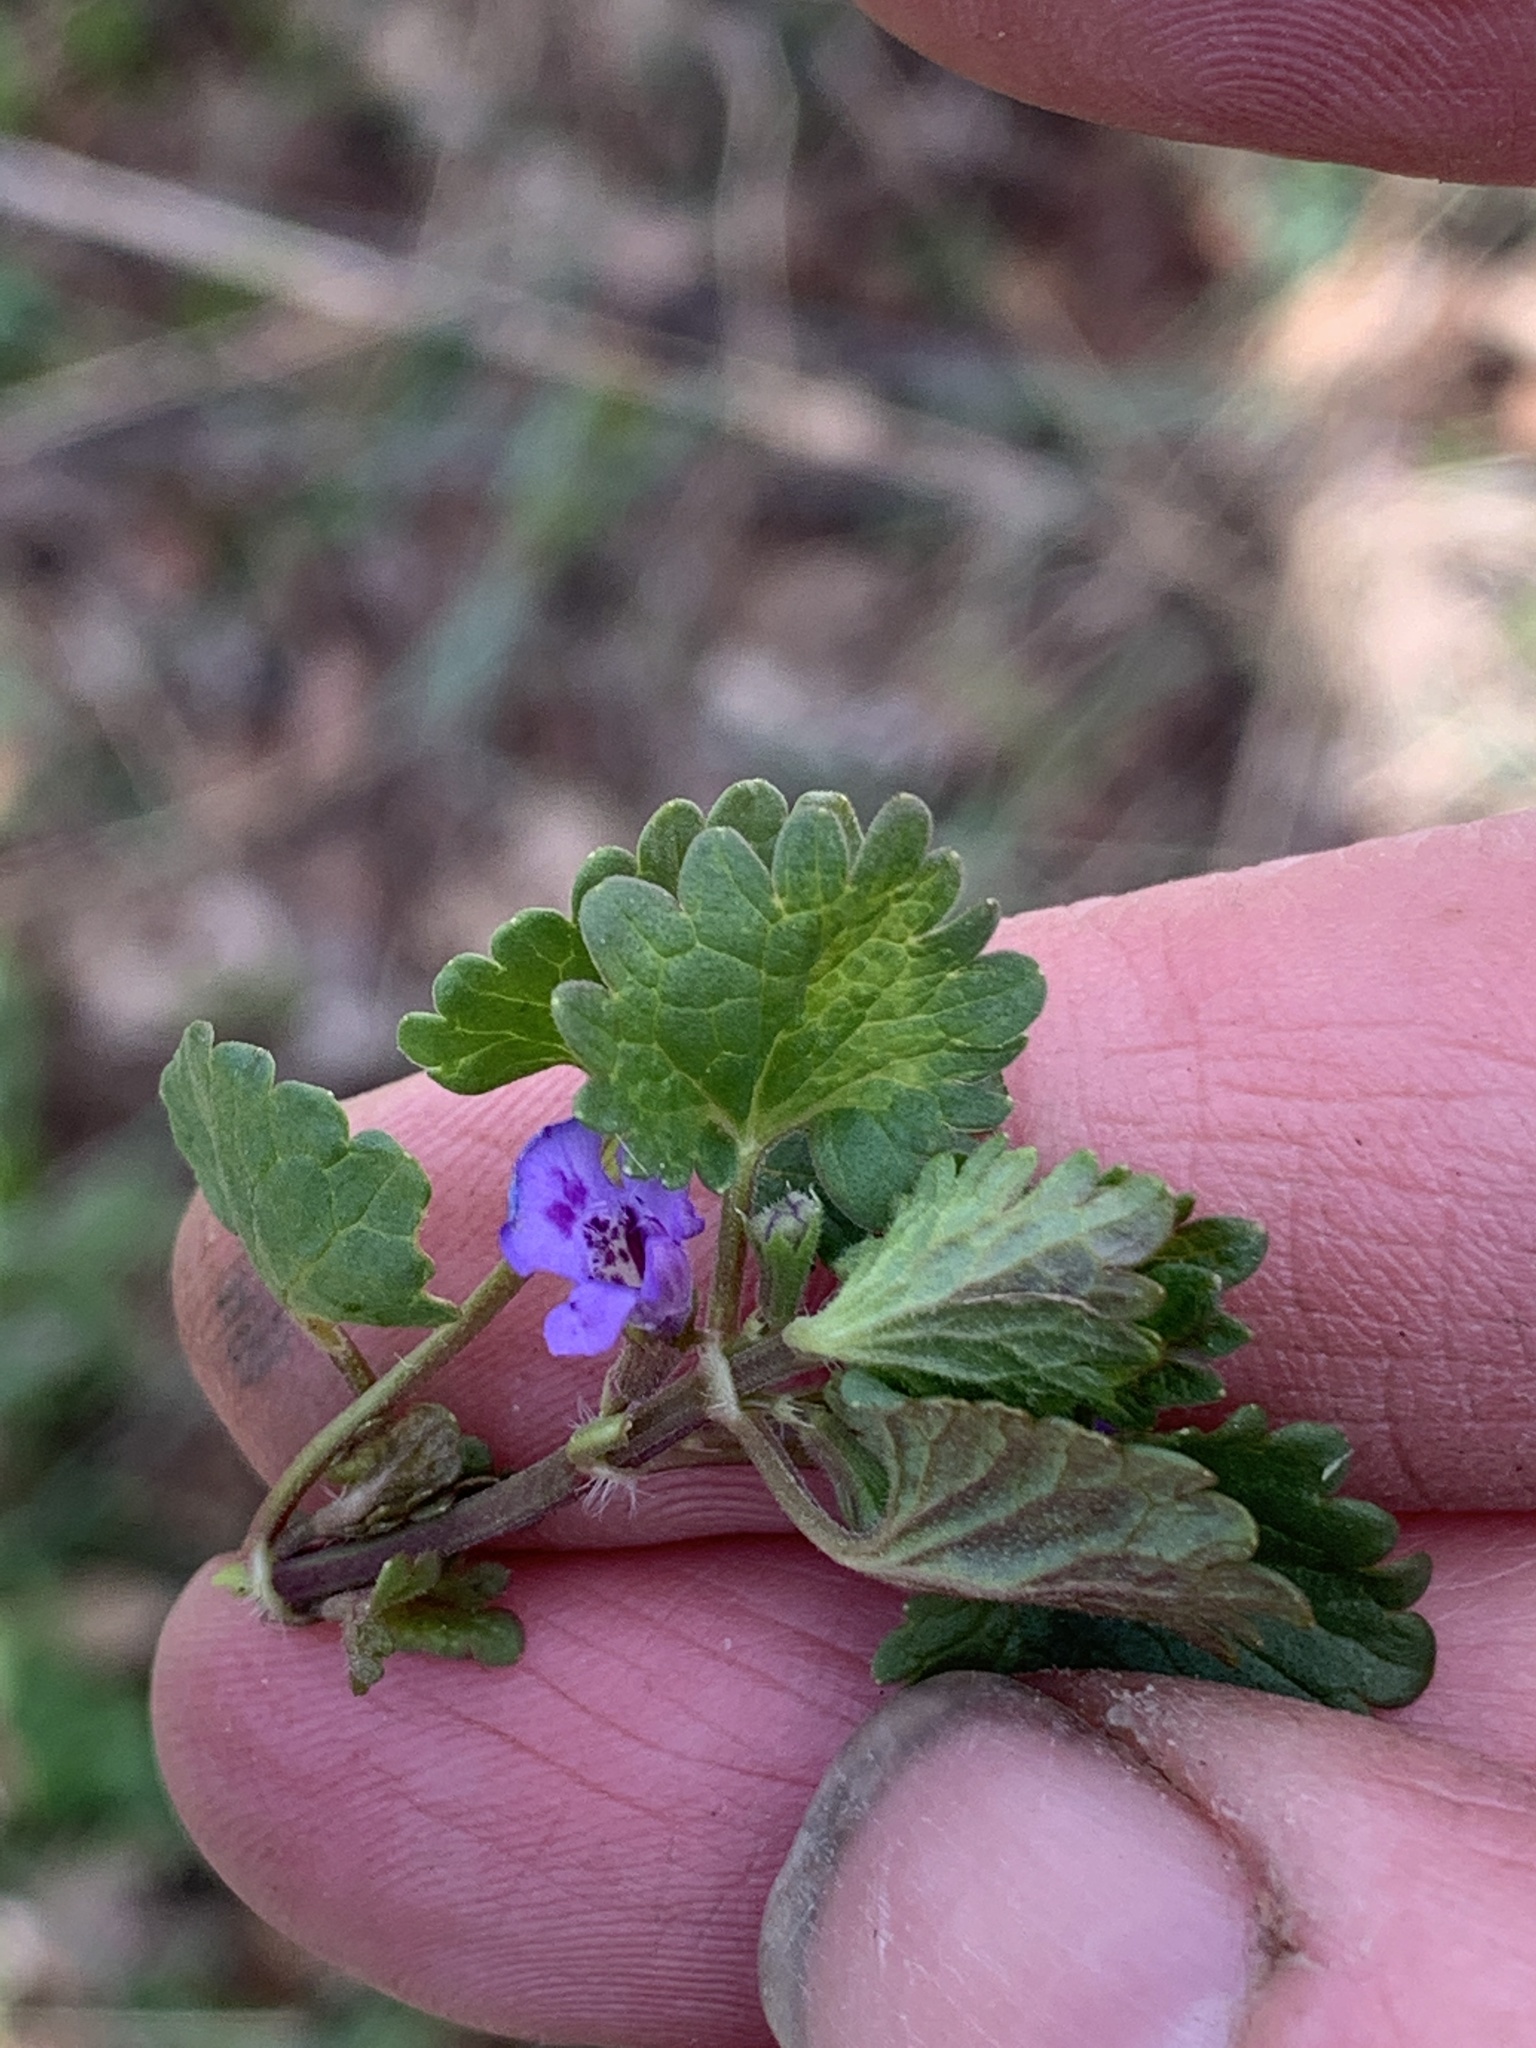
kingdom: Plantae
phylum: Tracheophyta
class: Magnoliopsida
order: Lamiales
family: Lamiaceae
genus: Glechoma
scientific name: Glechoma hederacea
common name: Ground ivy
